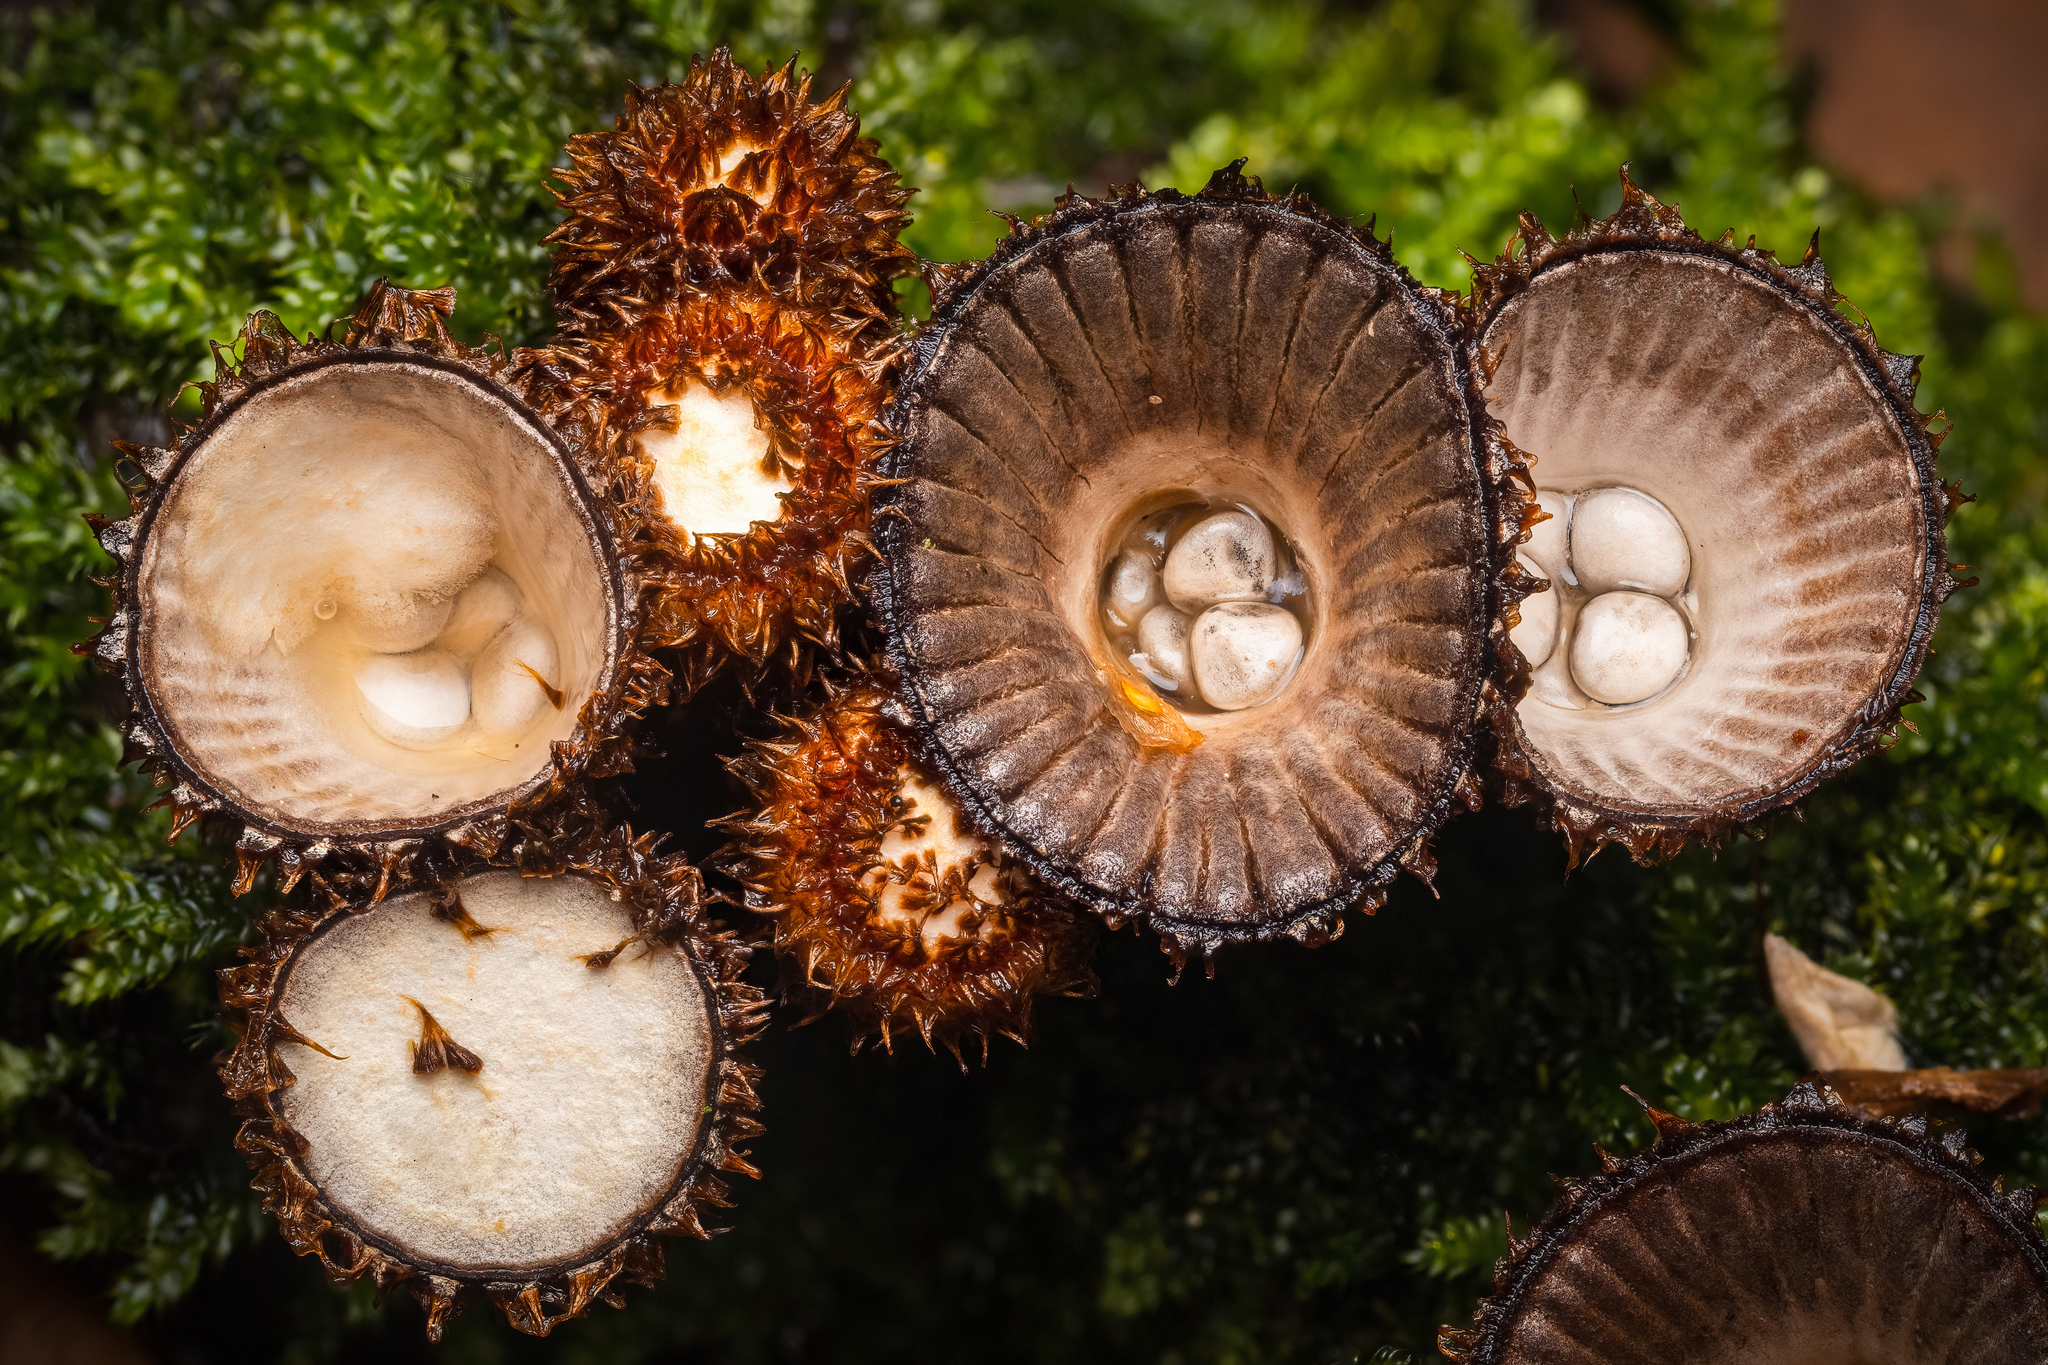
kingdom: Fungi
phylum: Basidiomycota
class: Agaricomycetes
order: Agaricales
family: Agaricaceae
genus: Cyathus
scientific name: Cyathus striatus
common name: Fluted bird's nest
